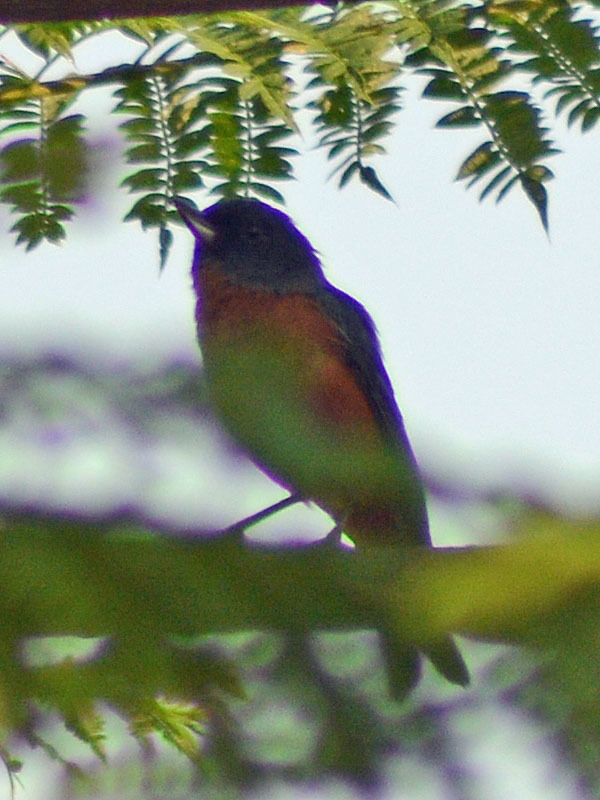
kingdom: Animalia
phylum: Chordata
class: Aves
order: Passeriformes
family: Thraupidae
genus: Diglossa
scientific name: Diglossa baritula
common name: Cinnamon-bellied flowerpiercer
